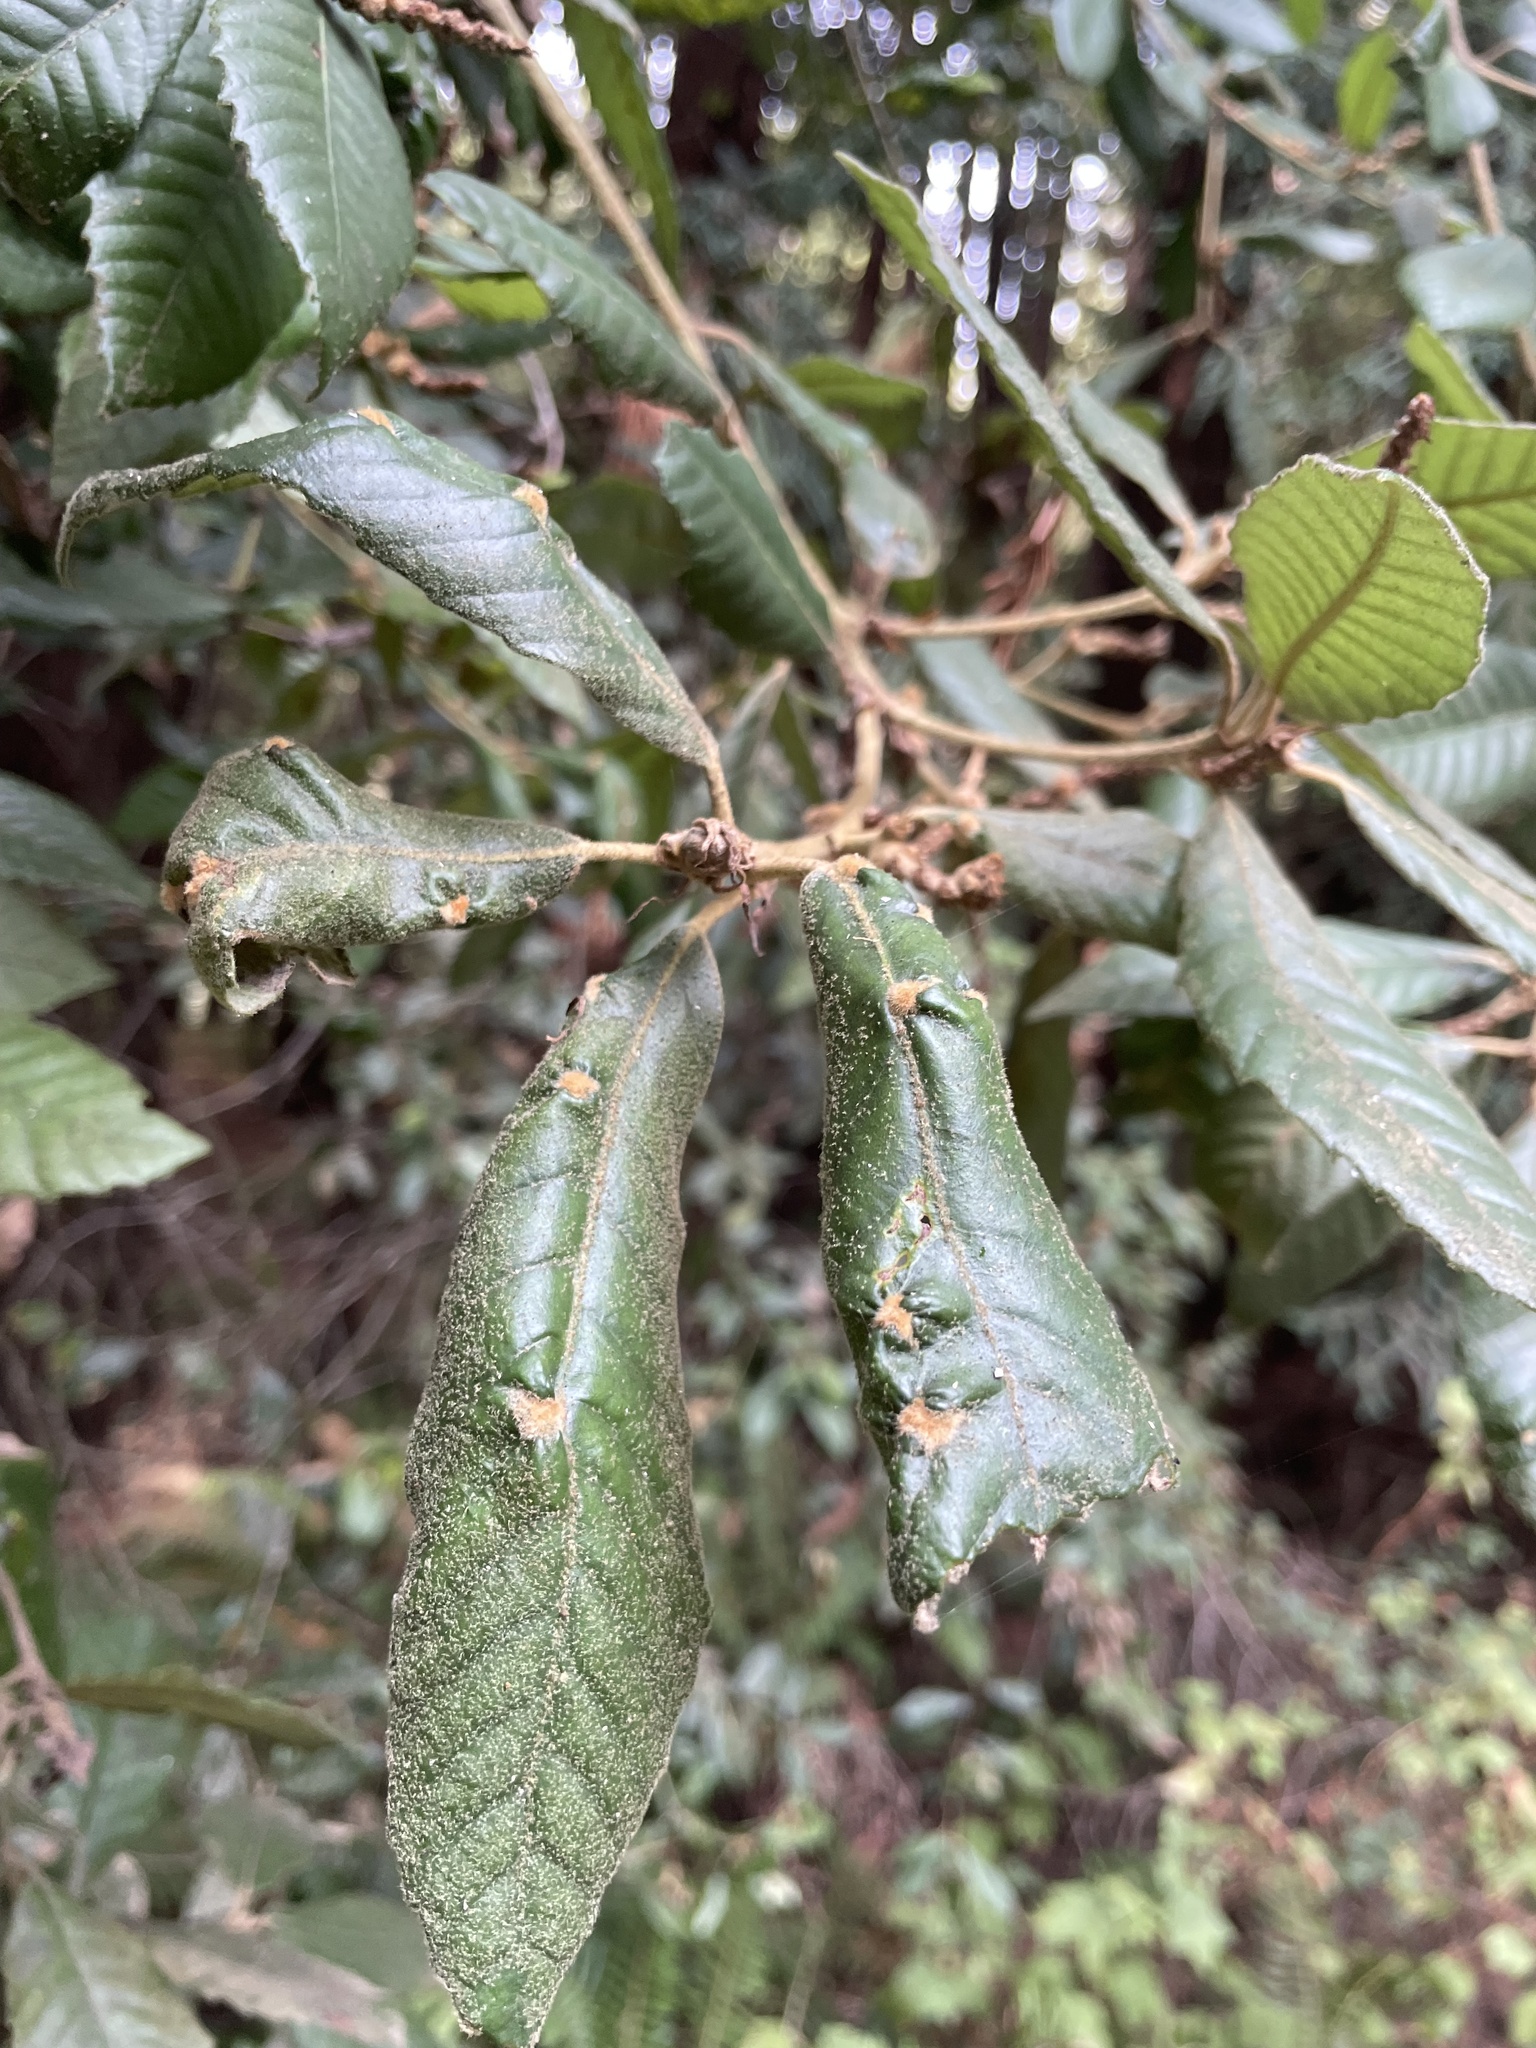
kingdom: Plantae
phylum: Tracheophyta
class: Magnoliopsida
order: Fagales
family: Fagaceae
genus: Notholithocarpus
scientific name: Notholithocarpus densiflorus
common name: Tan bark oak
